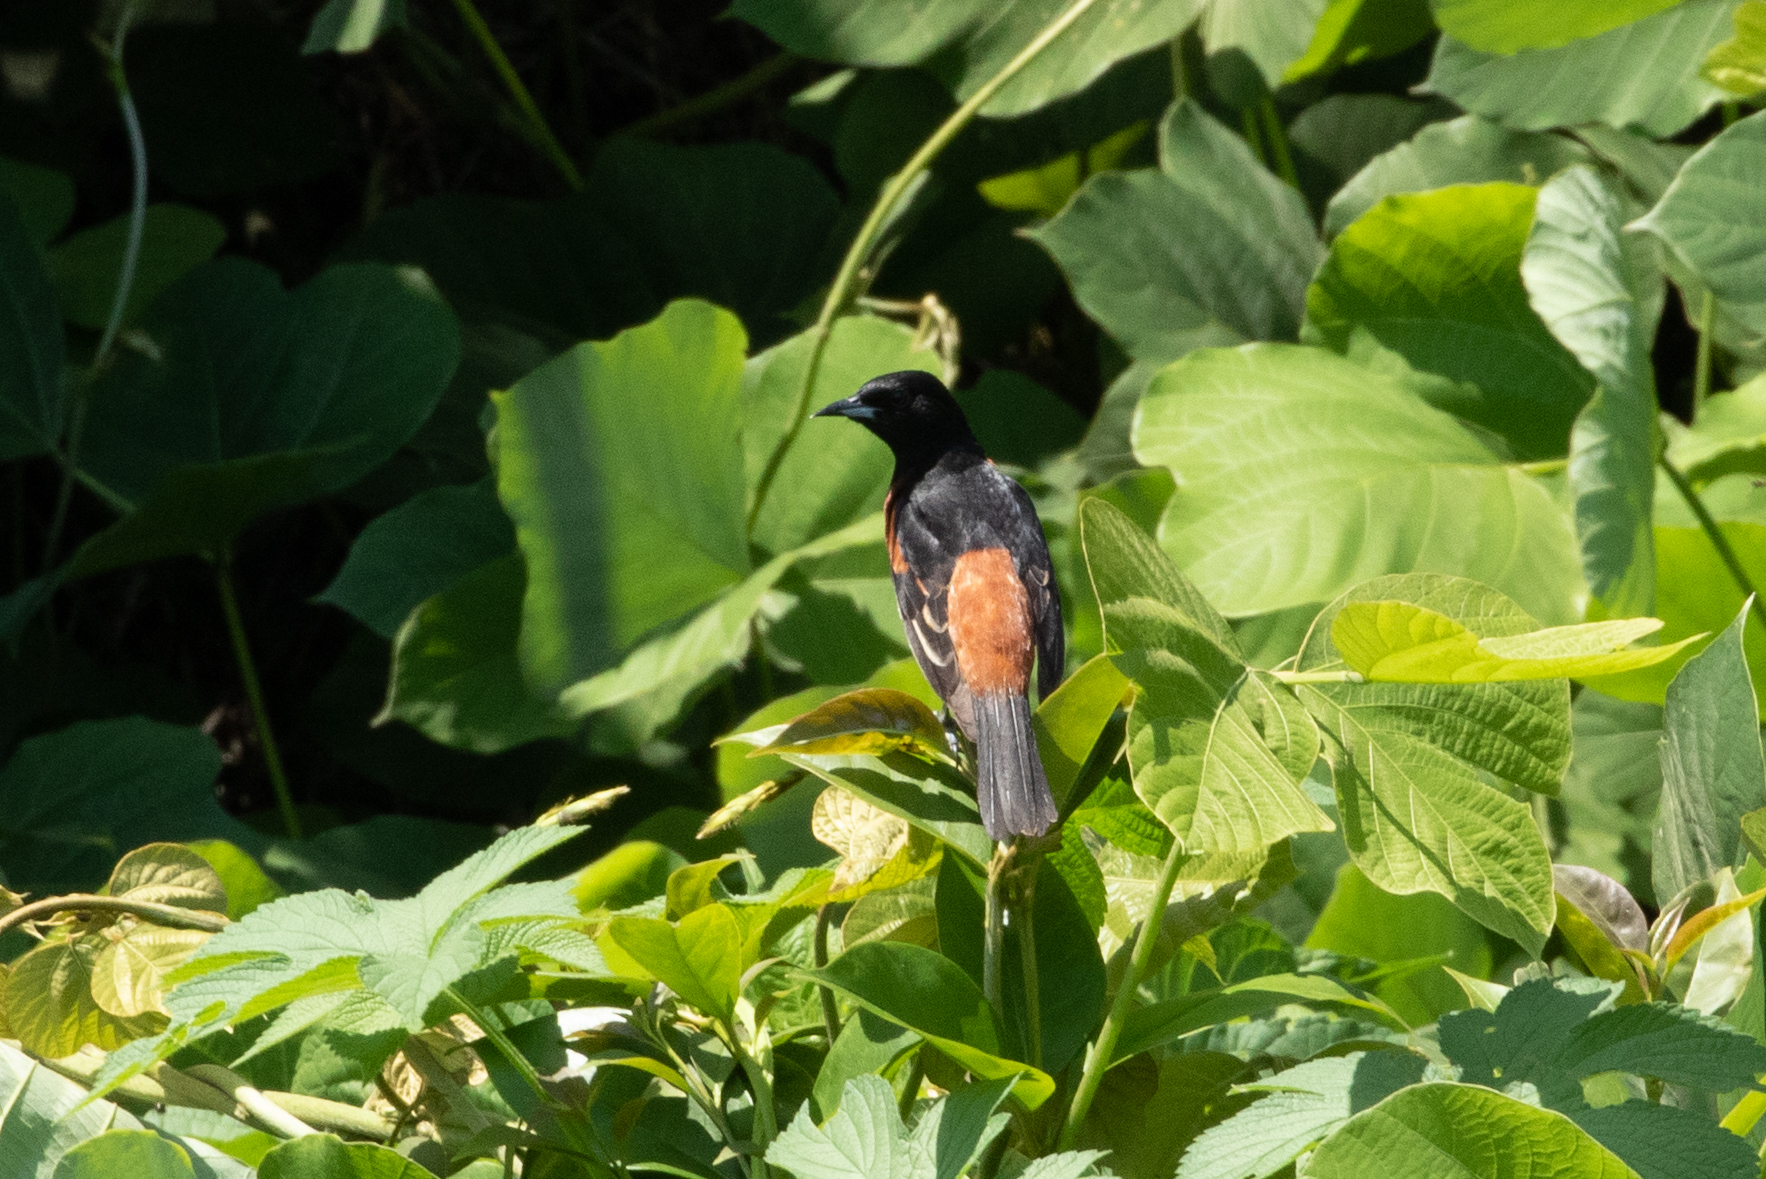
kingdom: Animalia
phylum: Chordata
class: Aves
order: Passeriformes
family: Icteridae
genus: Icterus
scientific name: Icterus spurius
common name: Orchard oriole
